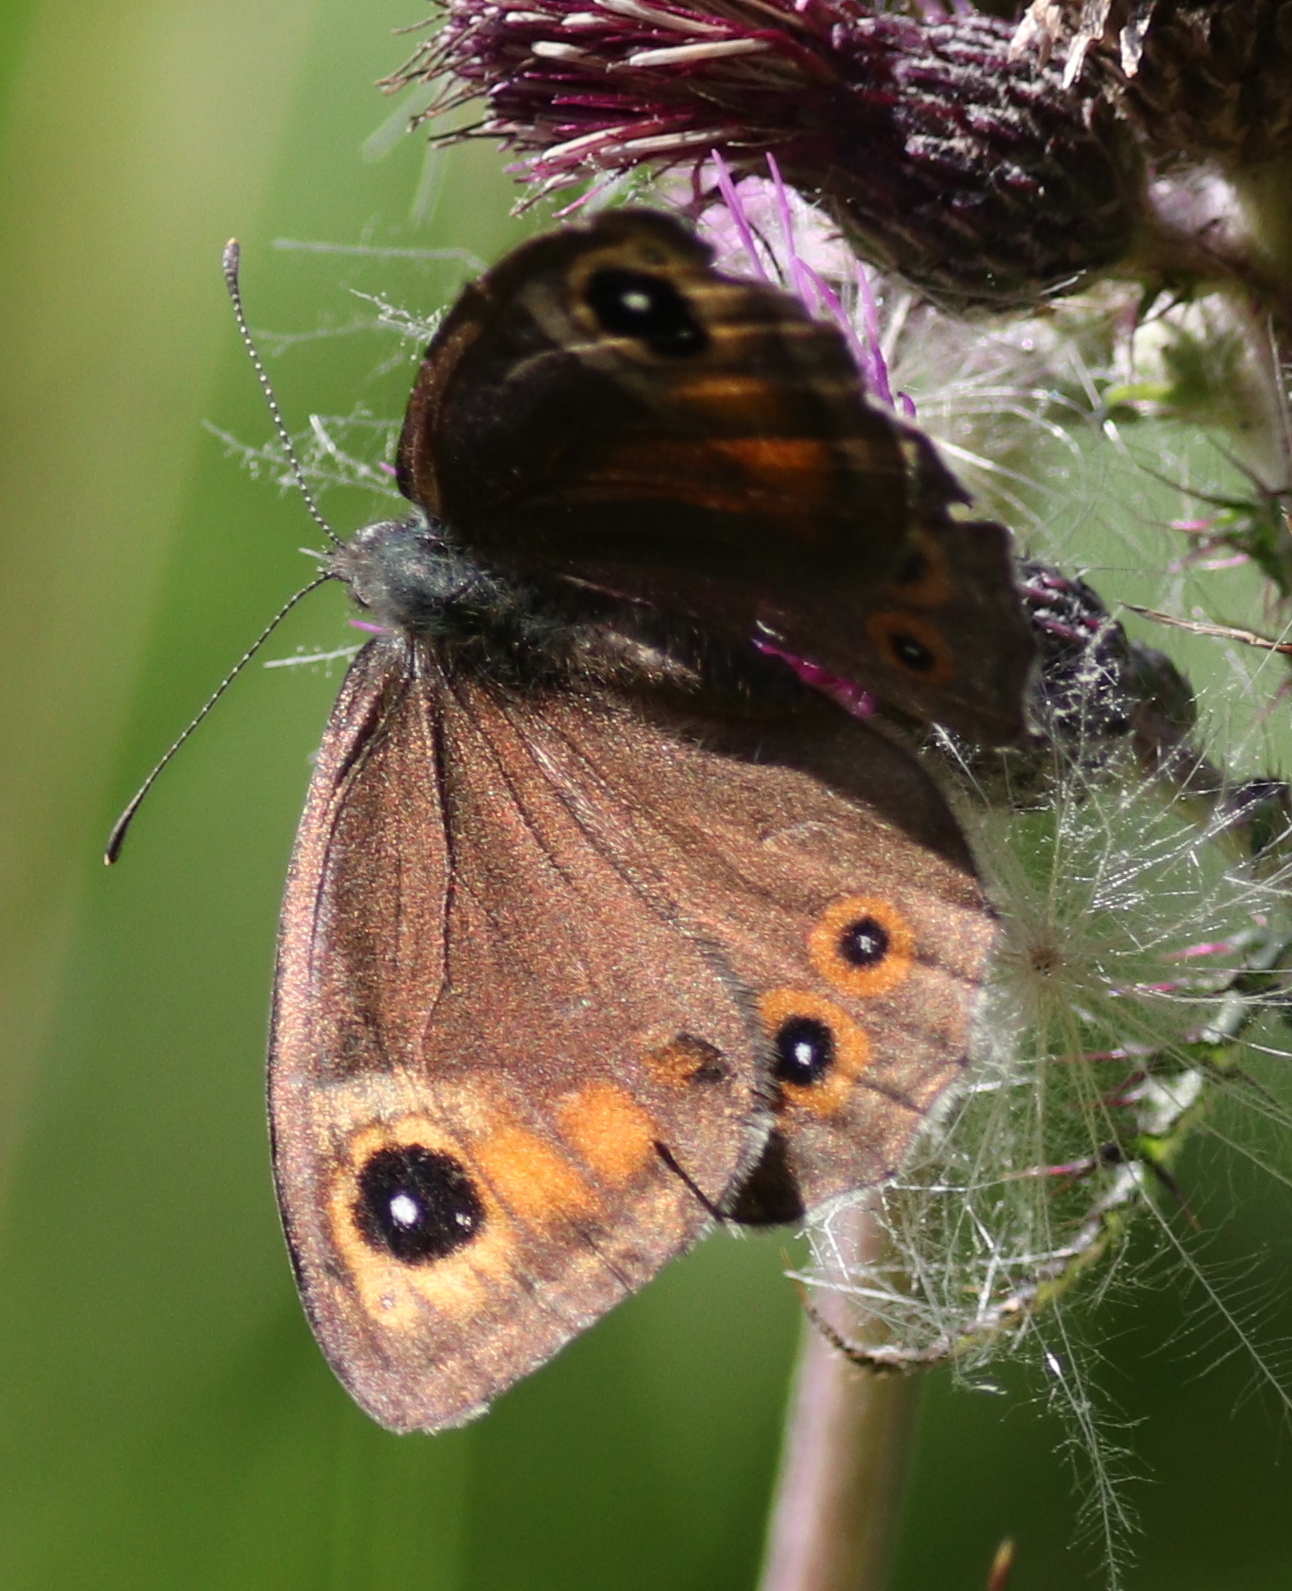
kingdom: Animalia
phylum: Arthropoda
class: Insecta
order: Lepidoptera
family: Nymphalidae
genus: Pararge
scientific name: Pararge Lasiommata maera
